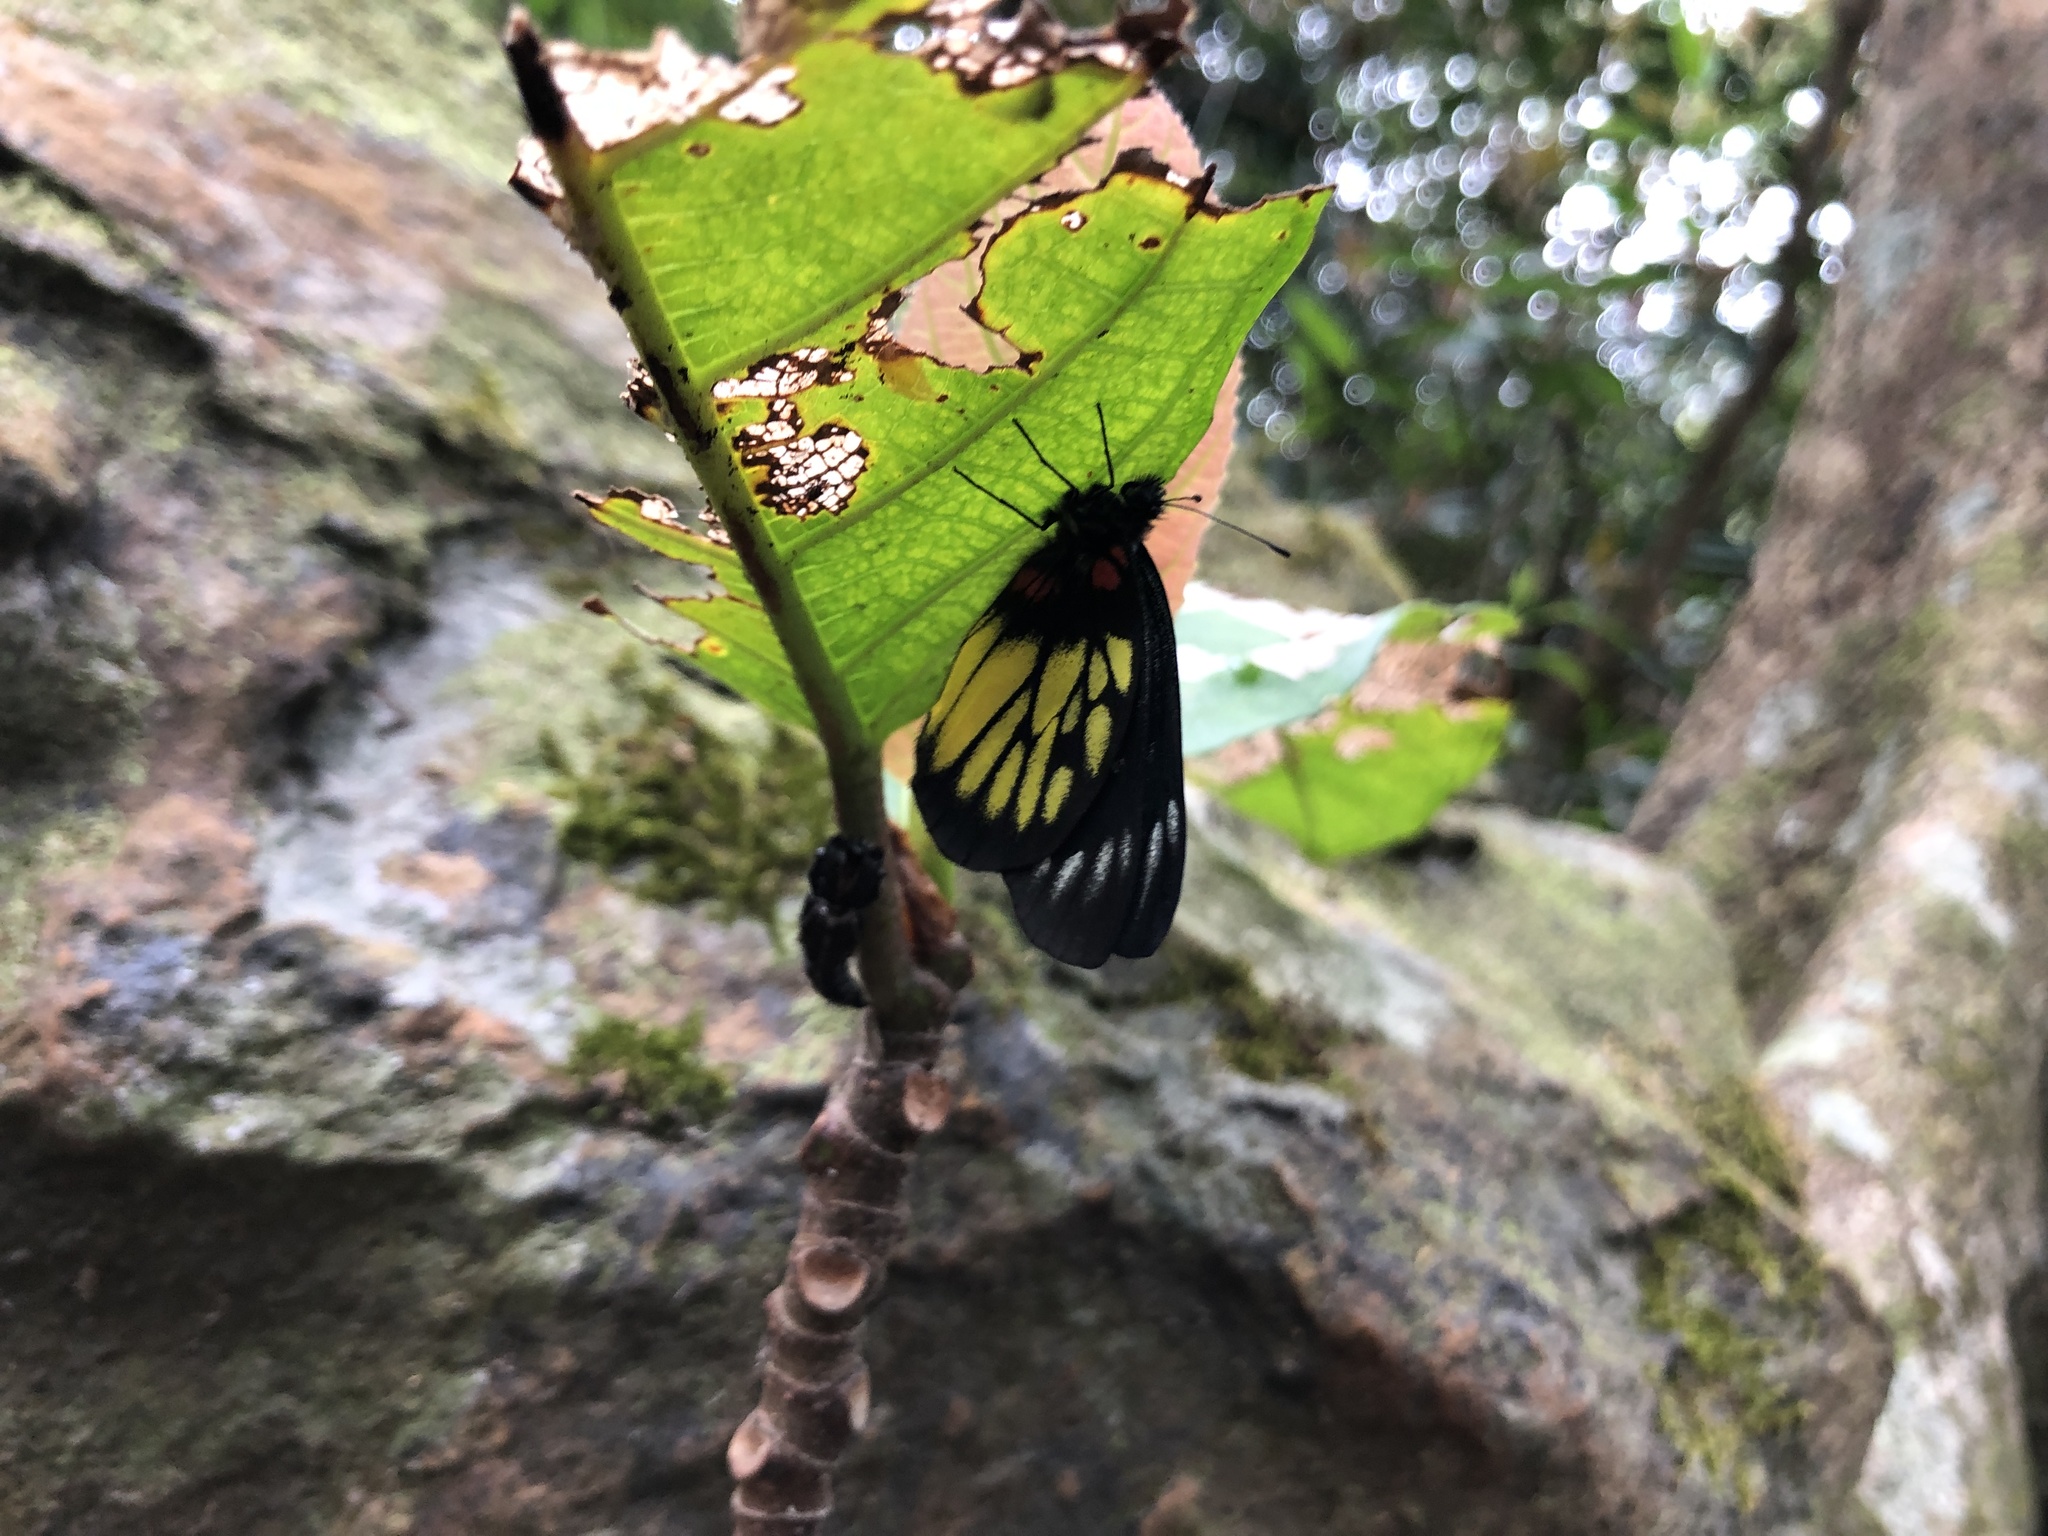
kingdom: Animalia
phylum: Arthropoda
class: Insecta
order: Lepidoptera
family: Pieridae
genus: Delias
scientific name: Delias pasithoe
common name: Red-base jezebel
